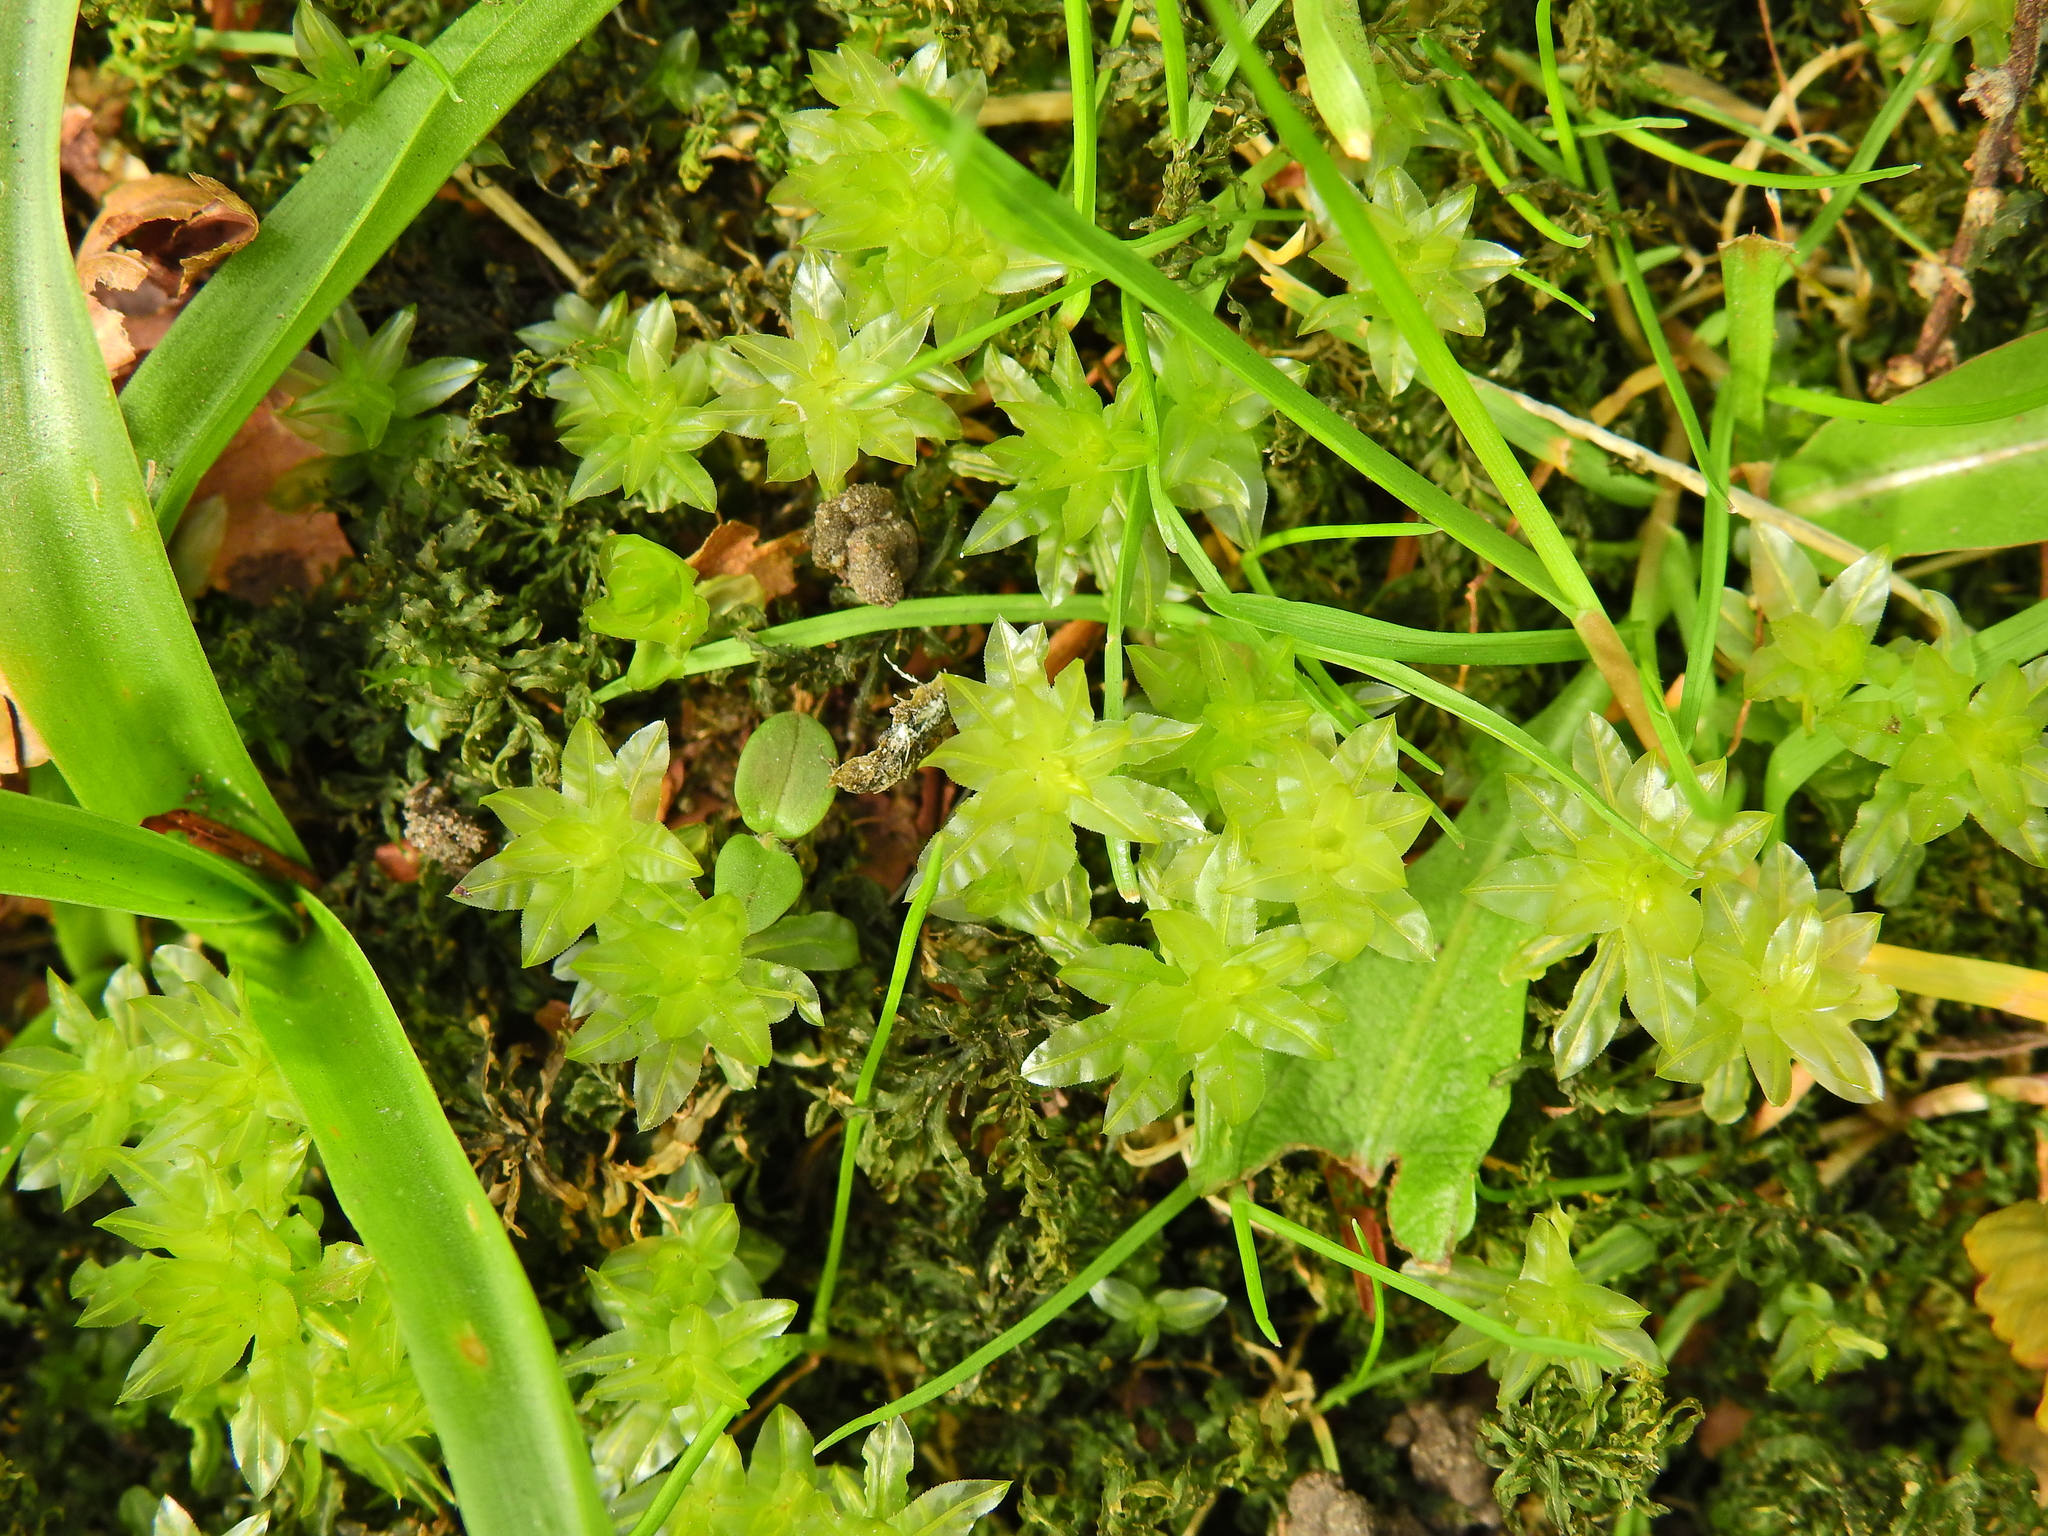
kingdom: Plantae
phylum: Bryophyta
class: Bryopsida
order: Bryales
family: Mniaceae
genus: Plagiomnium
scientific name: Plagiomnium undulatum
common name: Hart's-tongue thyme-moss
